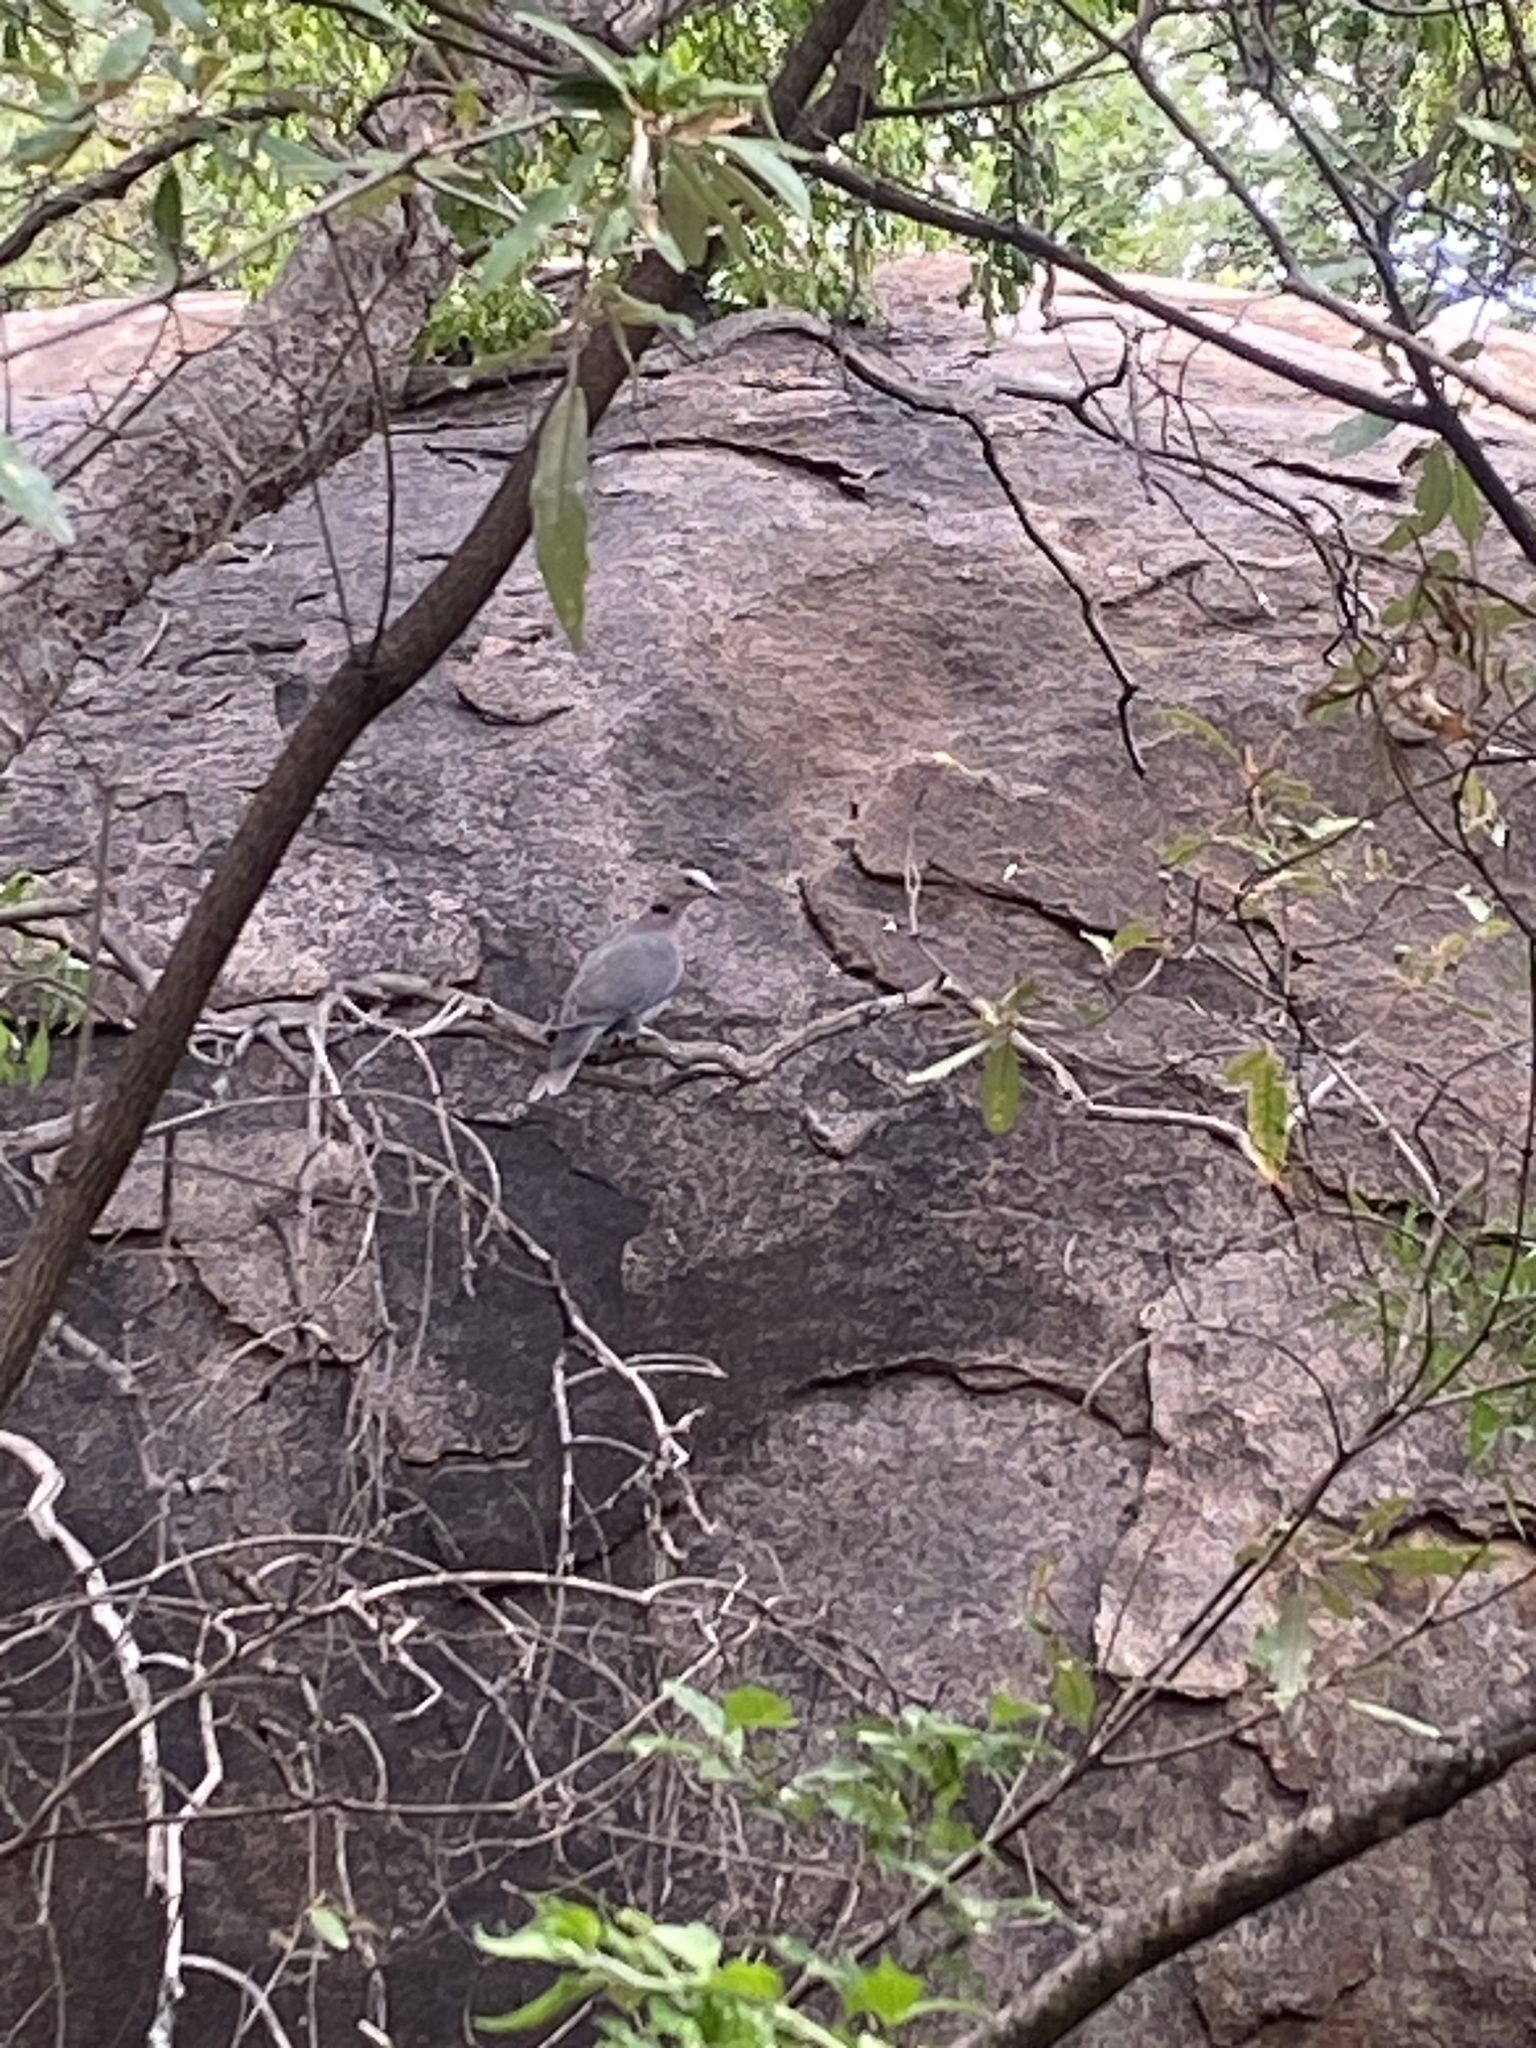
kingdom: Animalia
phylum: Chordata
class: Aves
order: Columbiformes
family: Columbidae
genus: Streptopelia
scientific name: Streptopelia capicola
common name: Ring-necked dove
